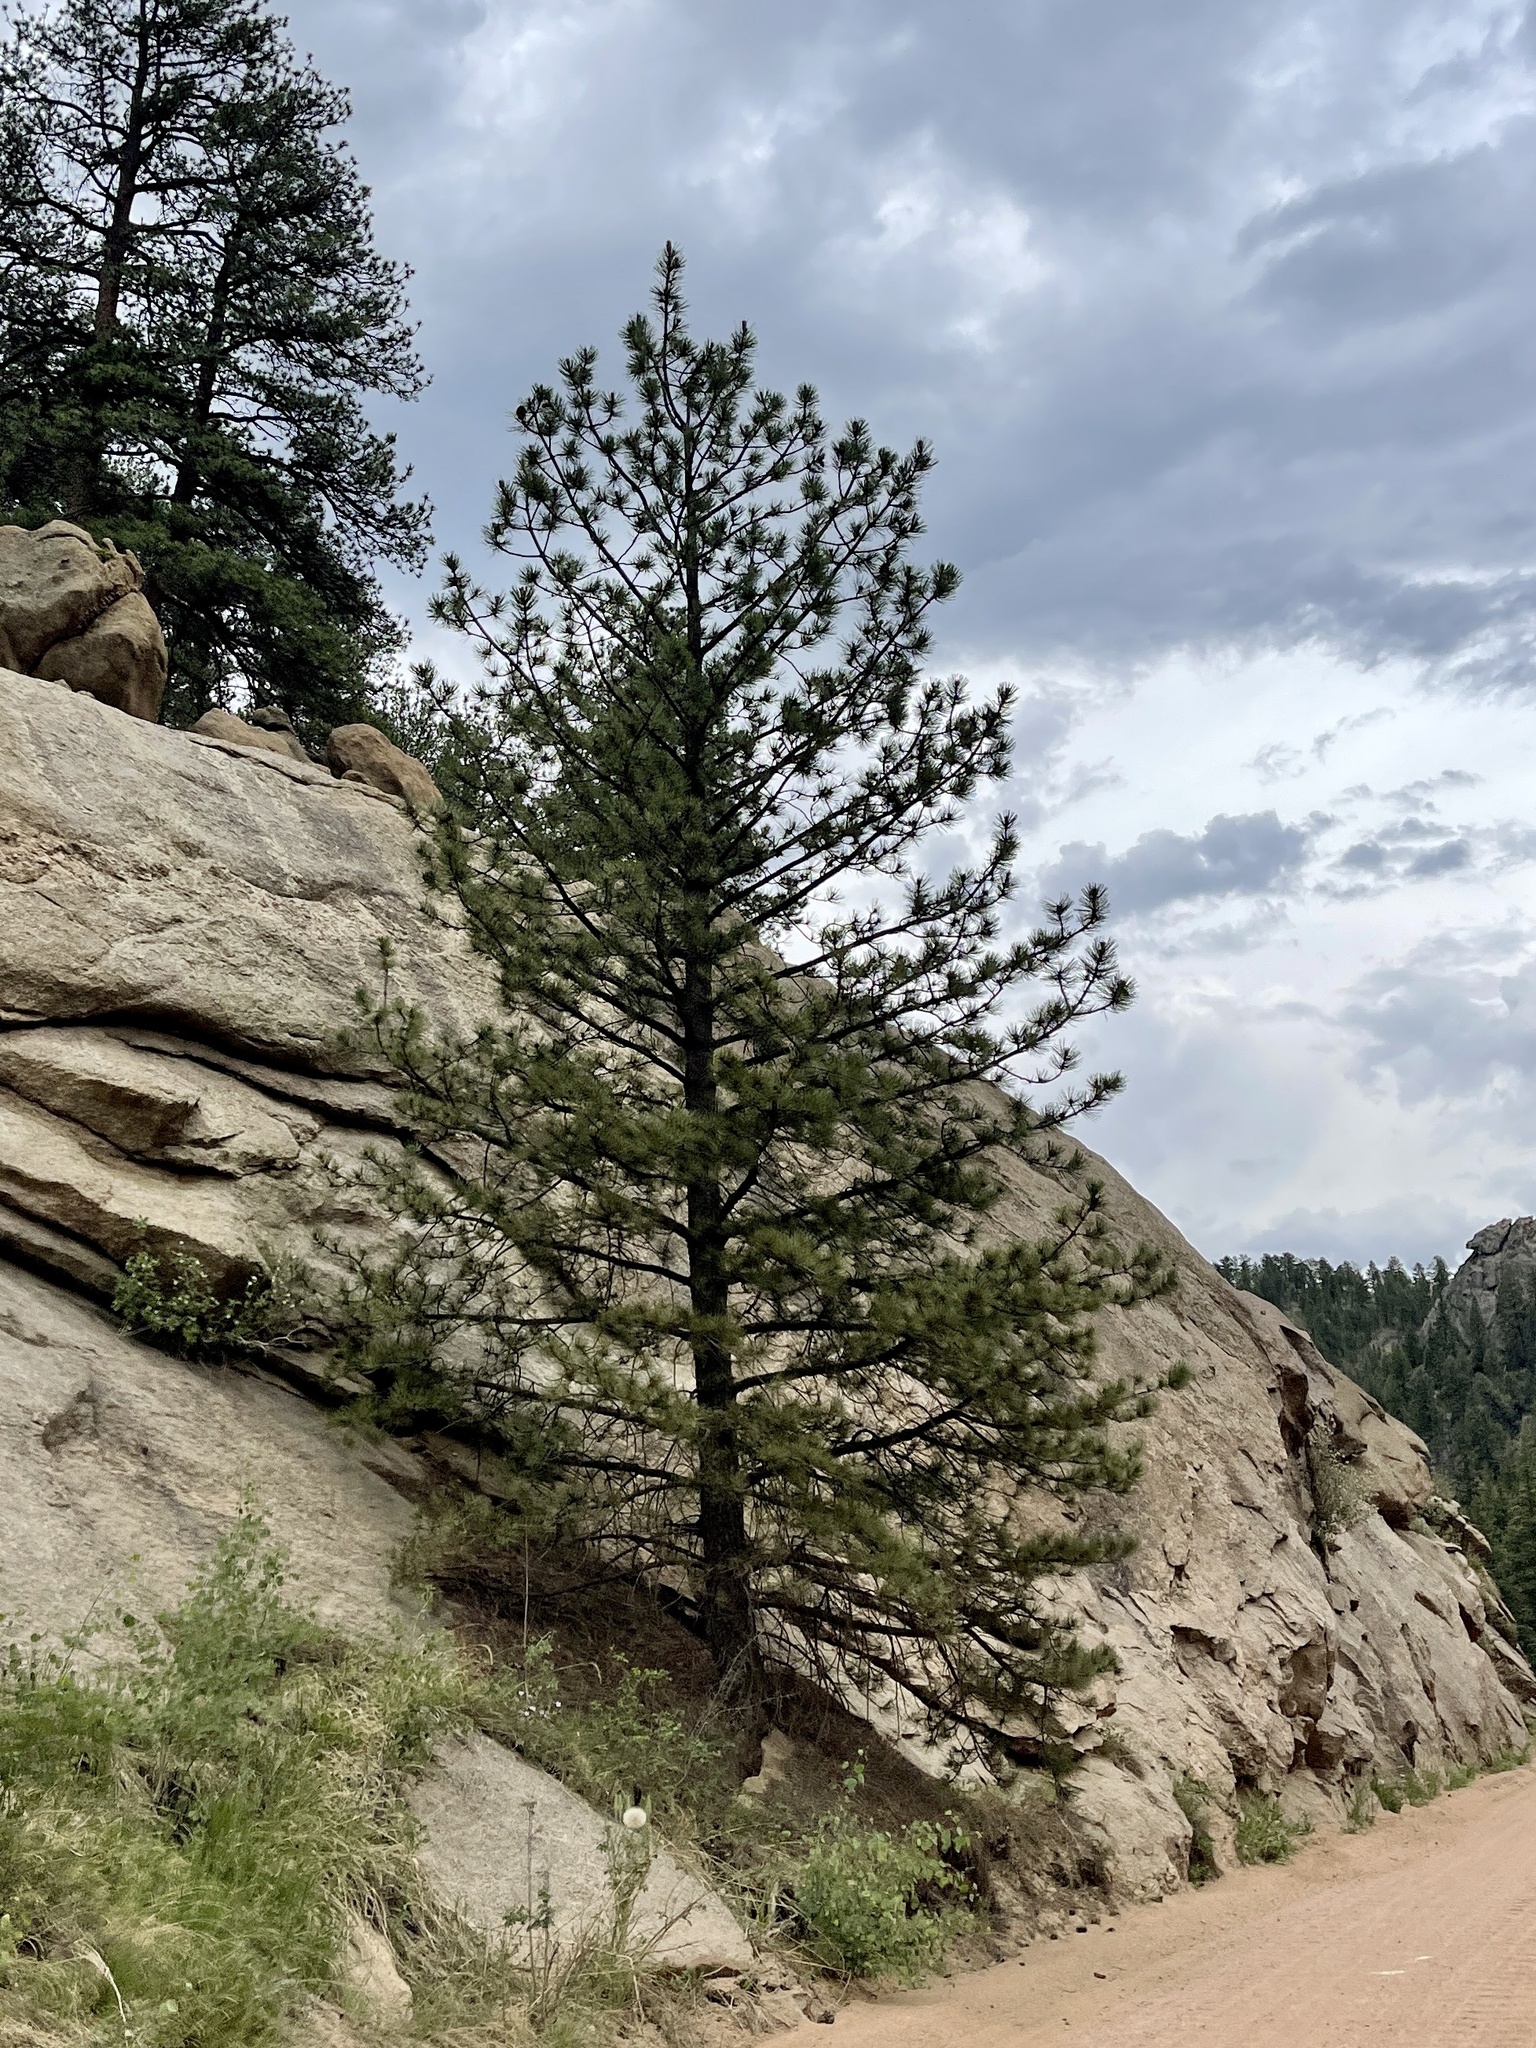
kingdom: Plantae
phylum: Tracheophyta
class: Pinopsida
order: Pinales
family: Pinaceae
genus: Pinus
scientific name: Pinus ponderosa
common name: Western yellow-pine
